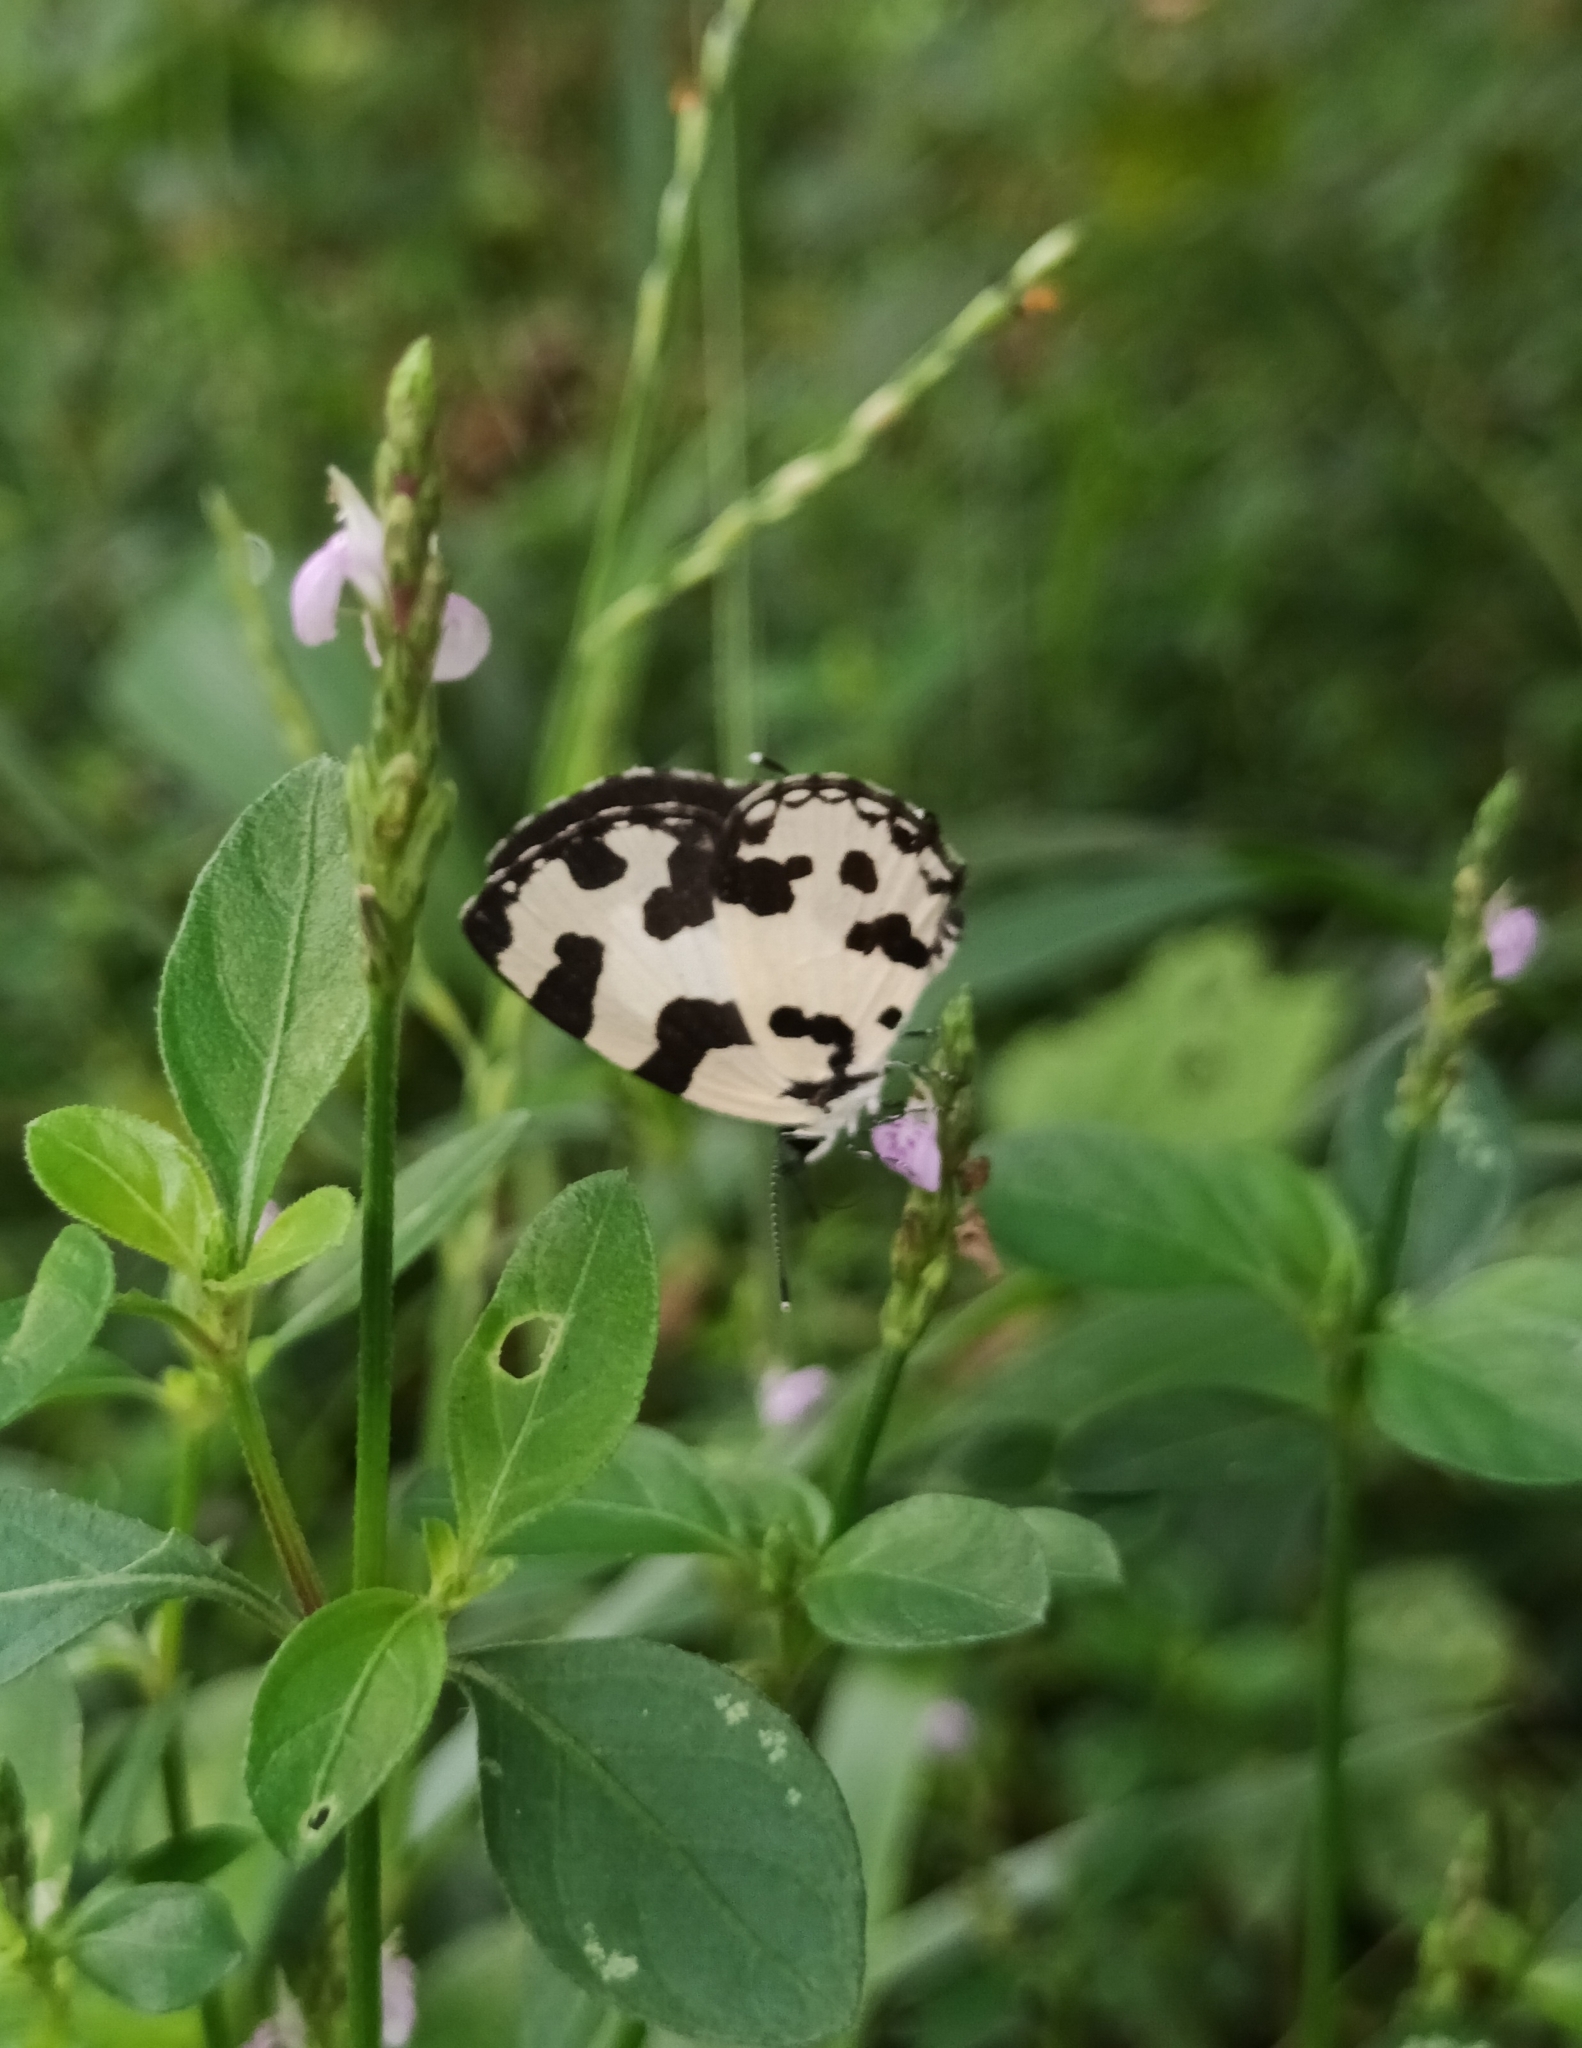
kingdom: Animalia
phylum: Arthropoda
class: Insecta
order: Lepidoptera
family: Lycaenidae
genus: Caleta
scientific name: Caleta decidia
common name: Angled pierrot
